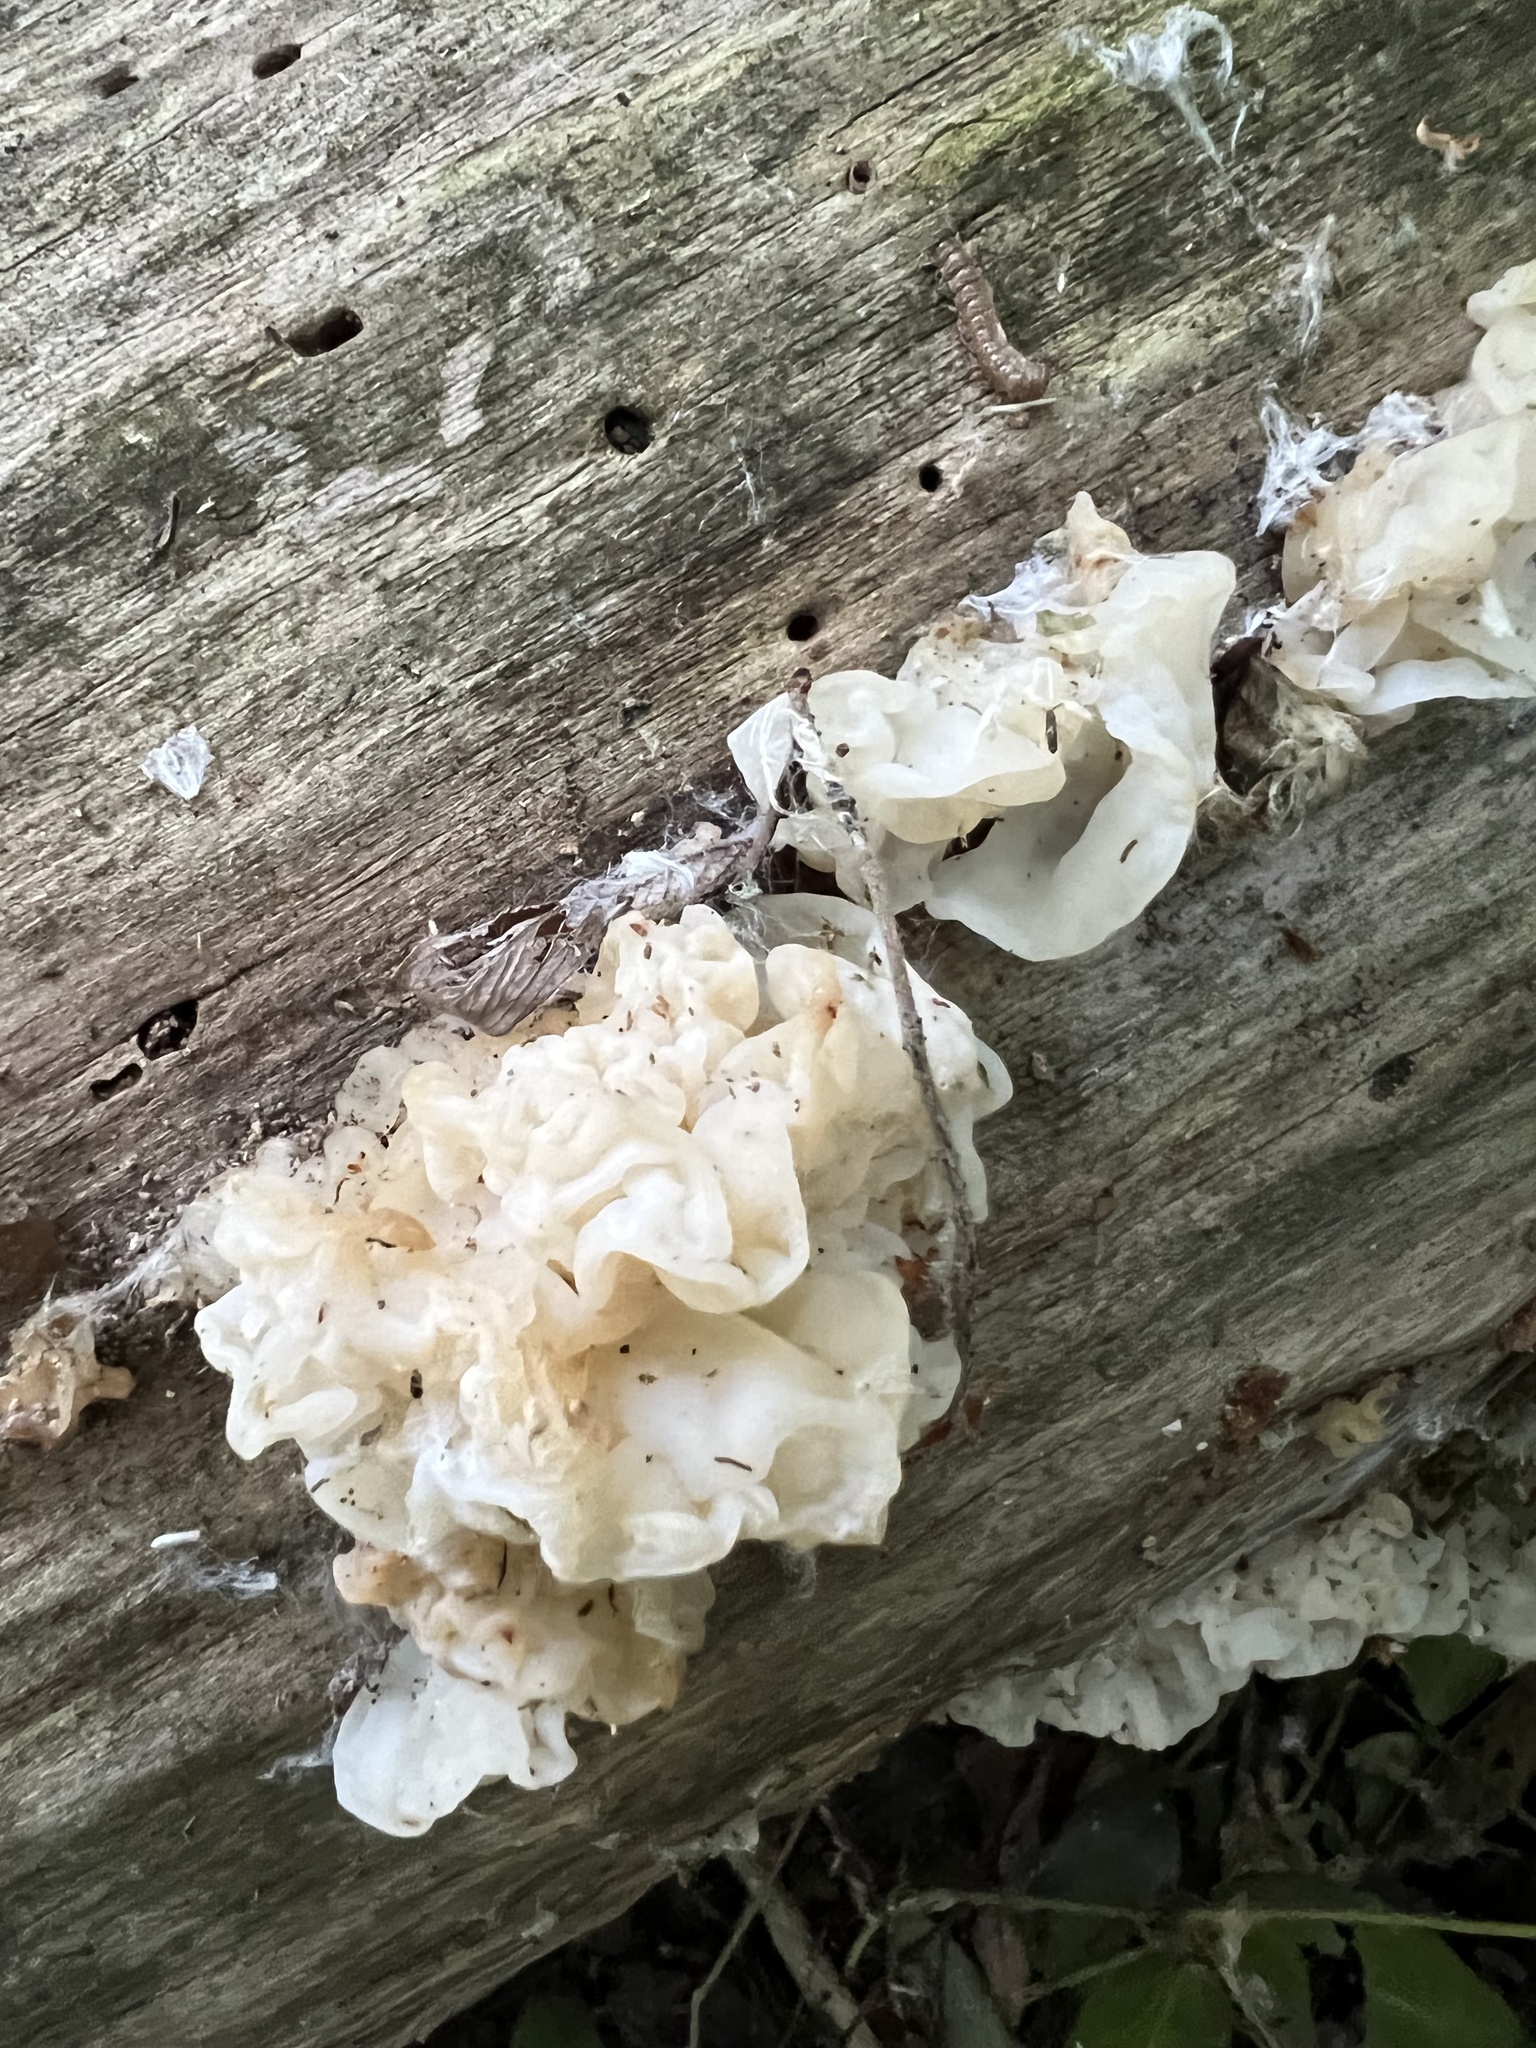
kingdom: Fungi
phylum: Basidiomycota
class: Agaricomycetes
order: Auriculariales
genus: Ductifera
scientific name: Ductifera pululahuana
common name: White jelly fungus
